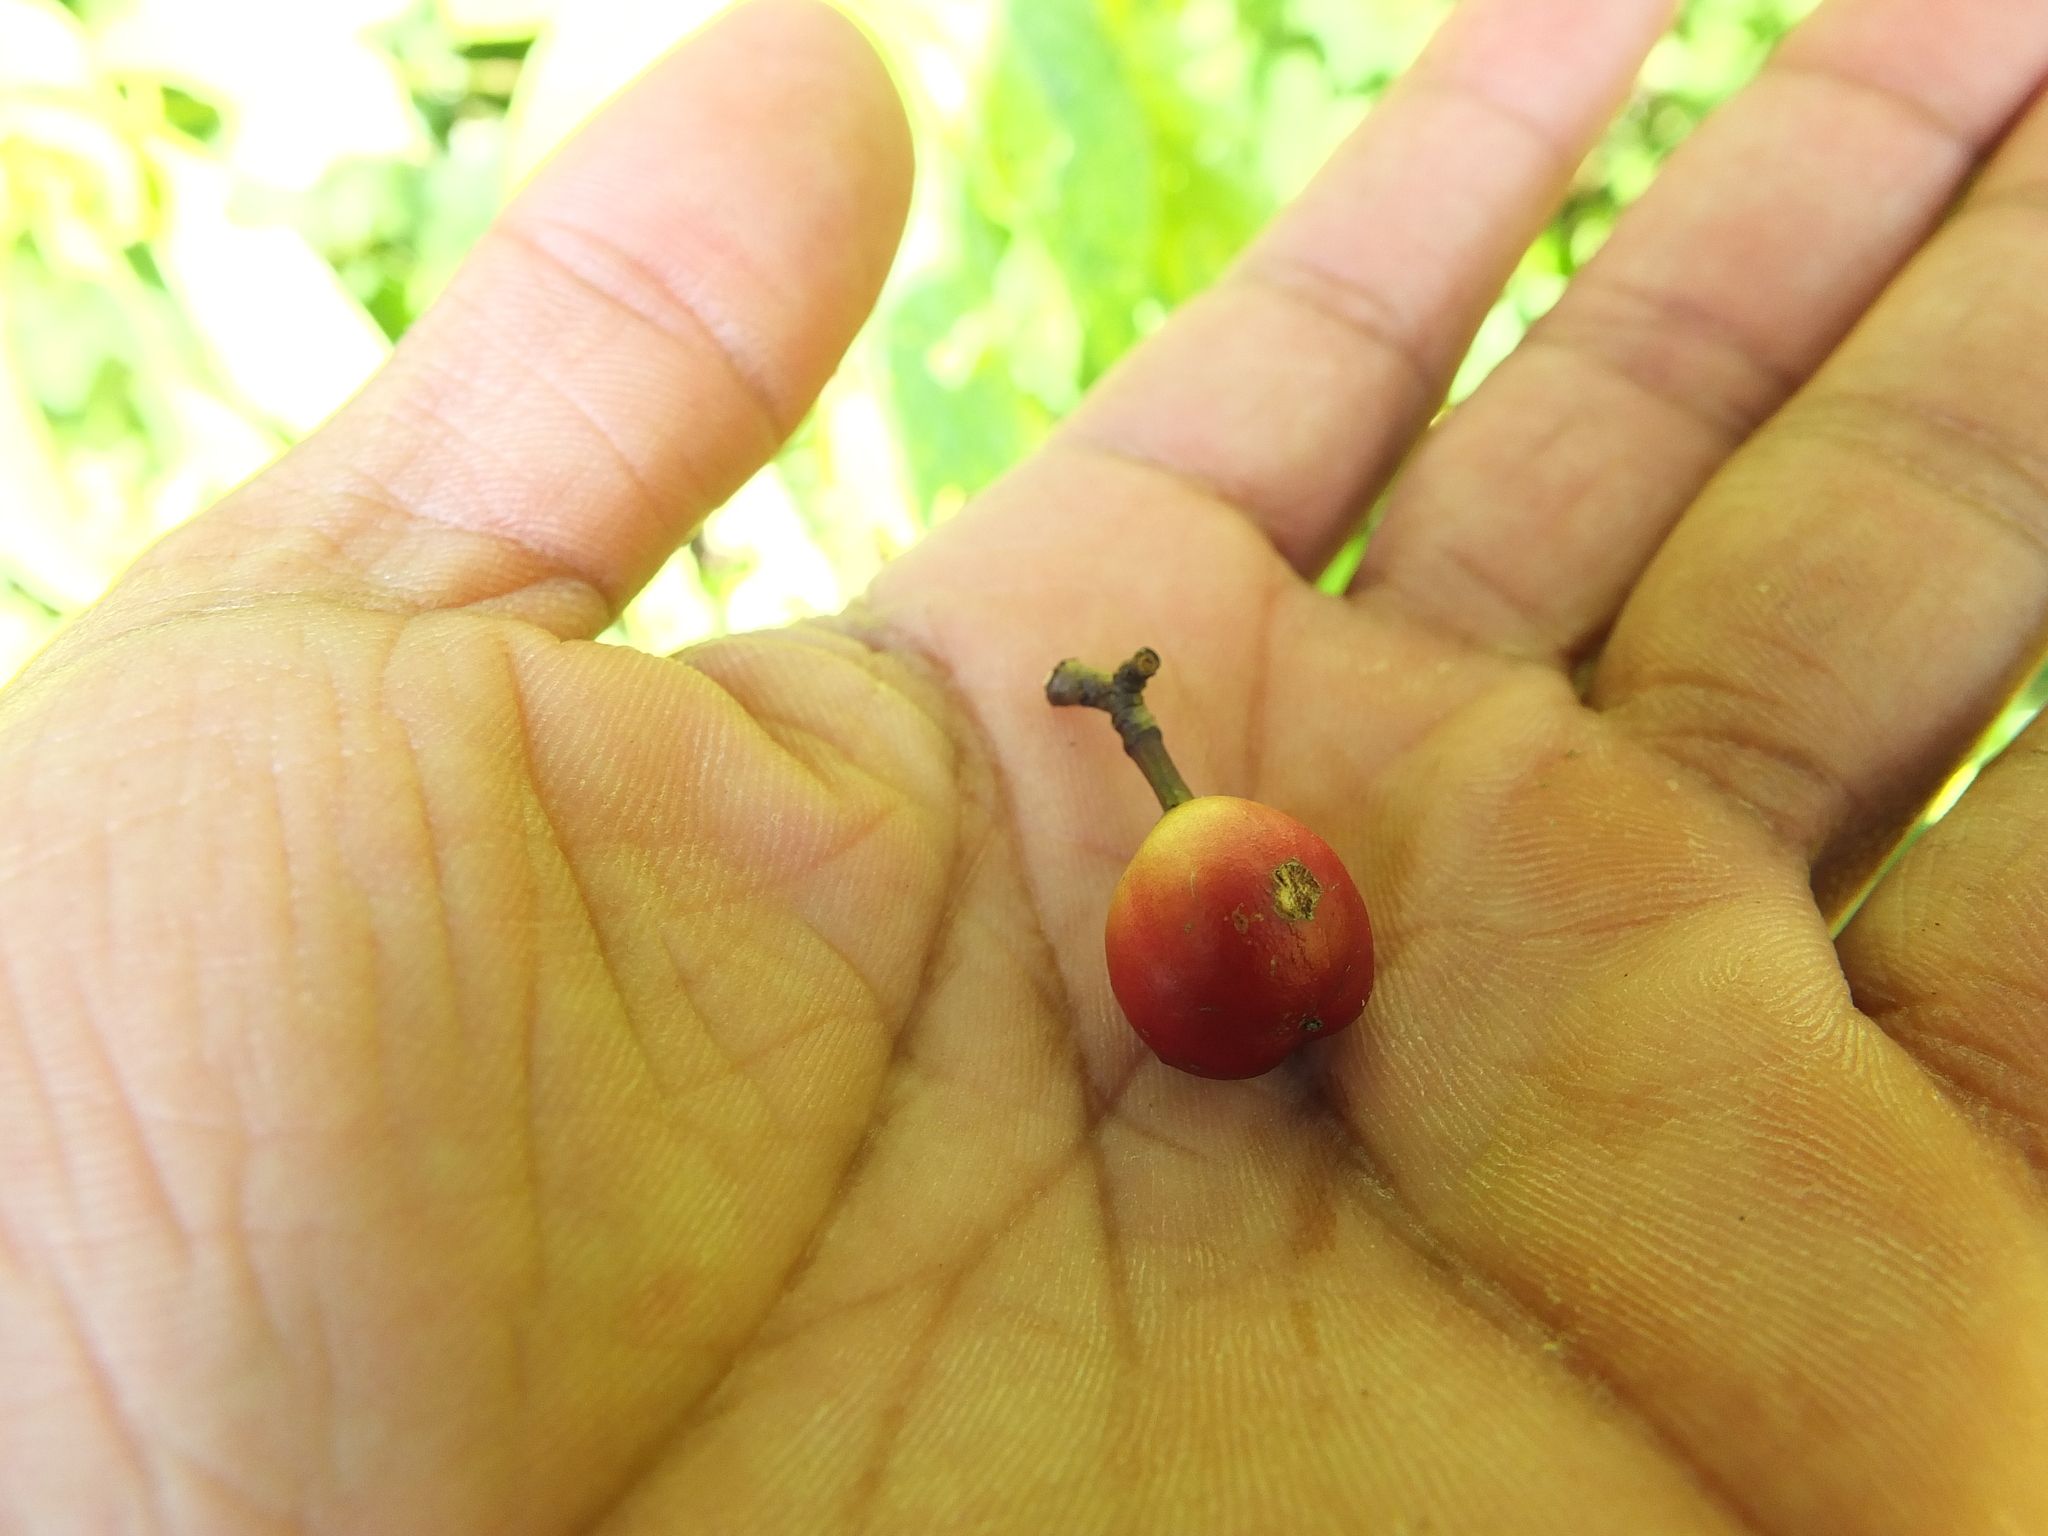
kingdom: Plantae
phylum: Tracheophyta
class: Magnoliopsida
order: Celastrales
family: Celastraceae
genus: Gymnosporia
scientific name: Gymnosporia rothiana
